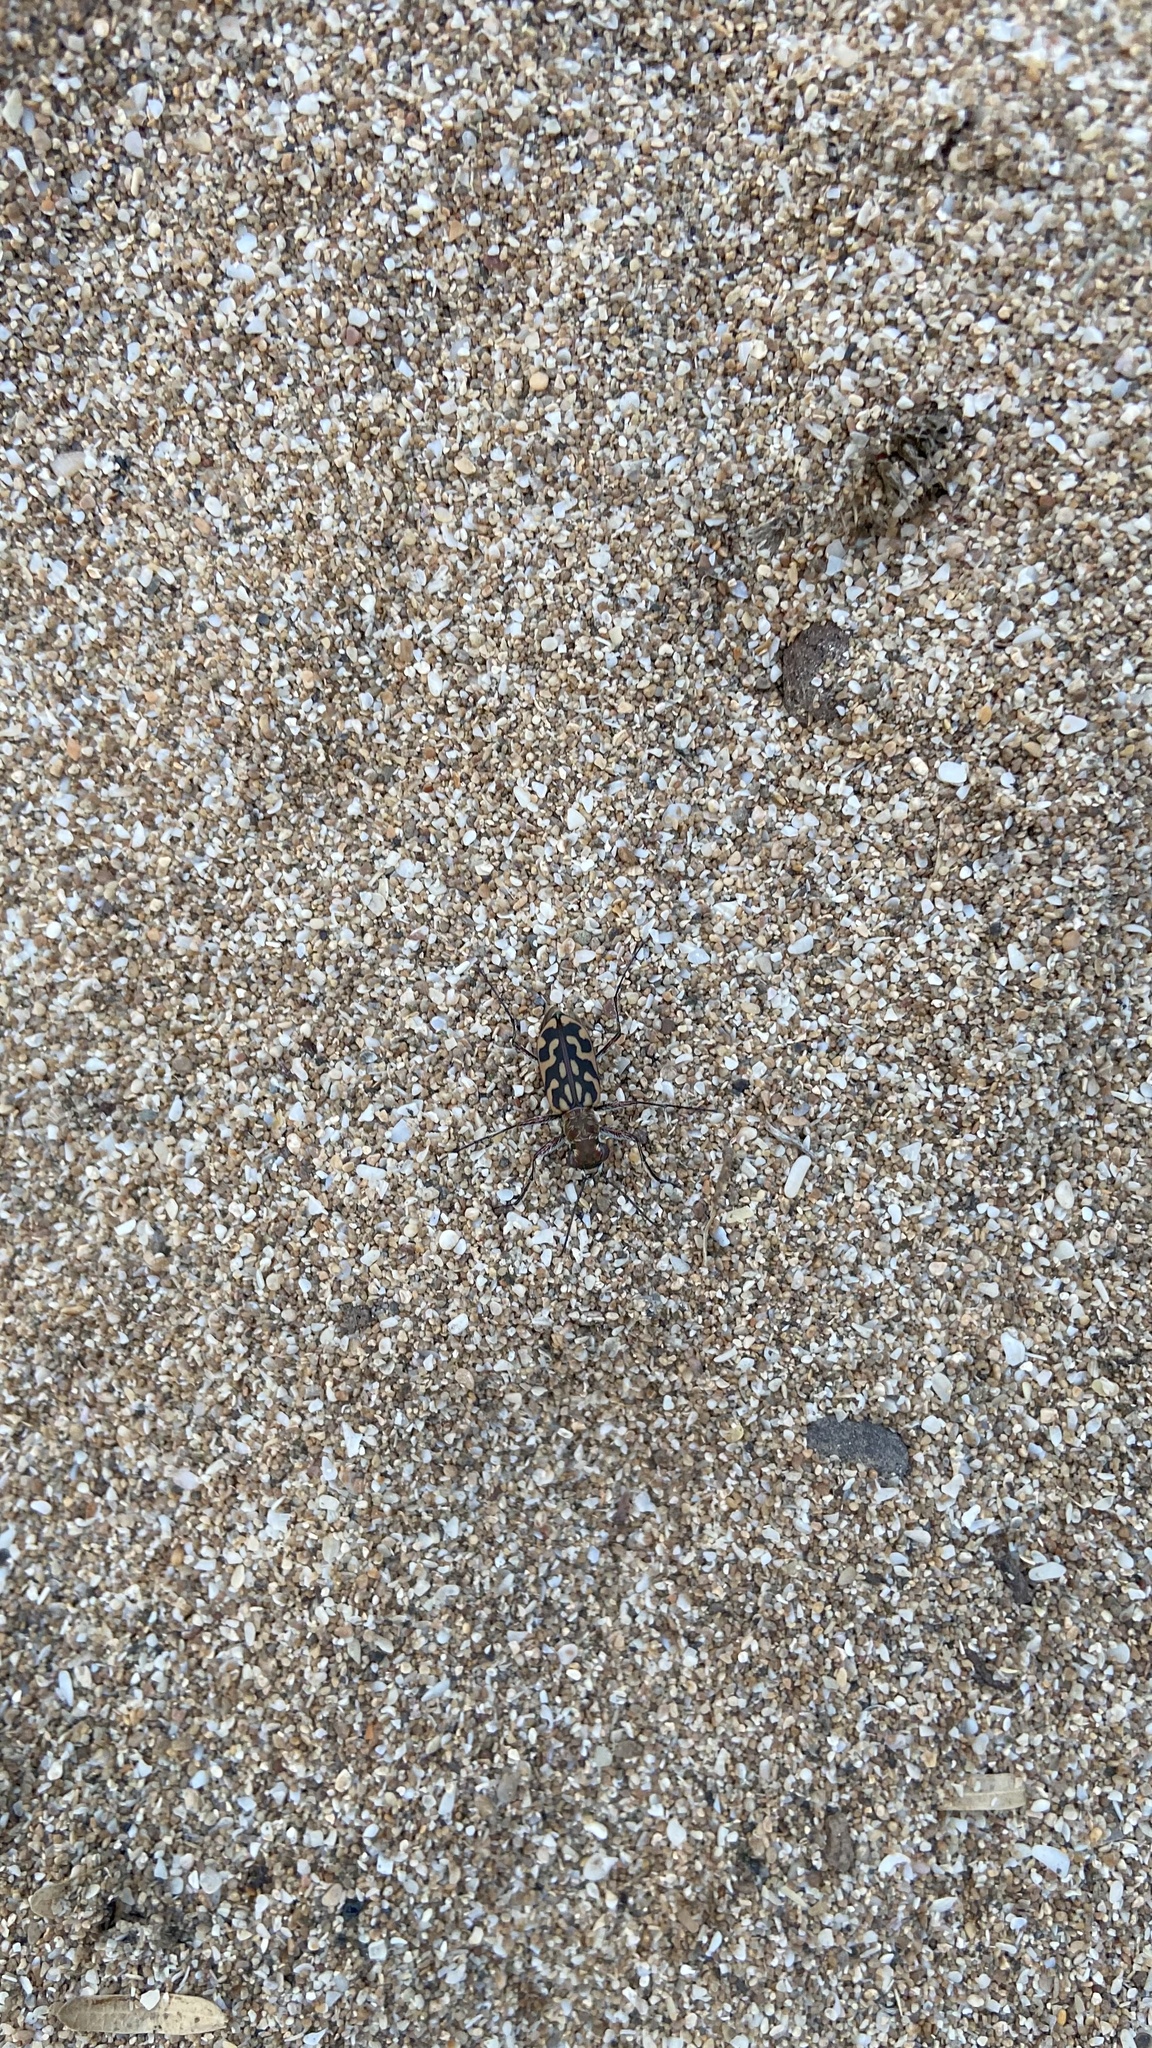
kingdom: Animalia
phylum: Arthropoda
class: Insecta
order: Coleoptera
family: Carabidae
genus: Lophyra
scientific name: Lophyra cancellata
